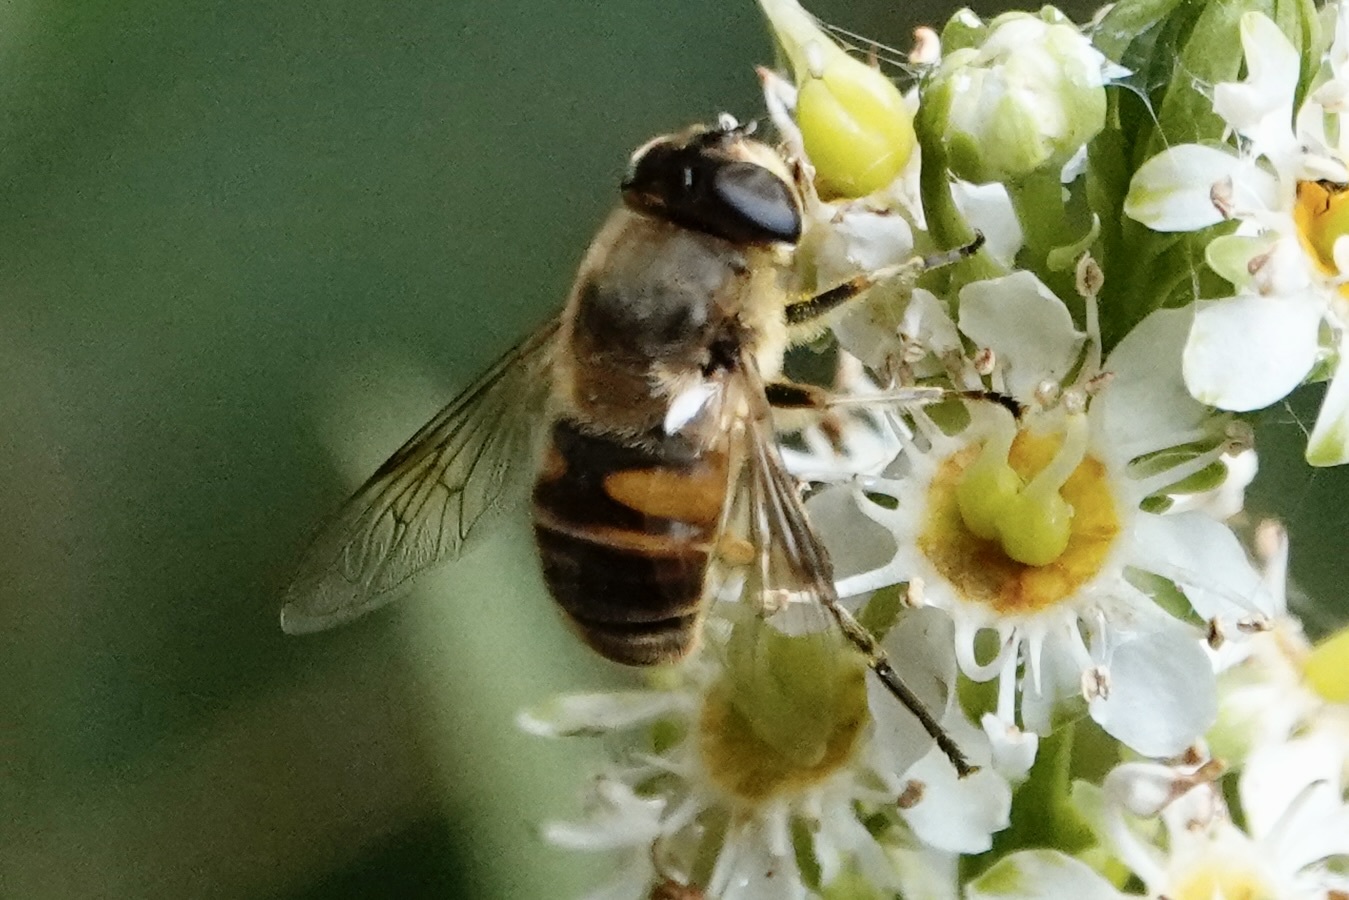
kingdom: Animalia
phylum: Arthropoda
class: Insecta
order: Diptera
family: Syrphidae
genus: Eristalis
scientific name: Eristalis tenax
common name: Drone fly
